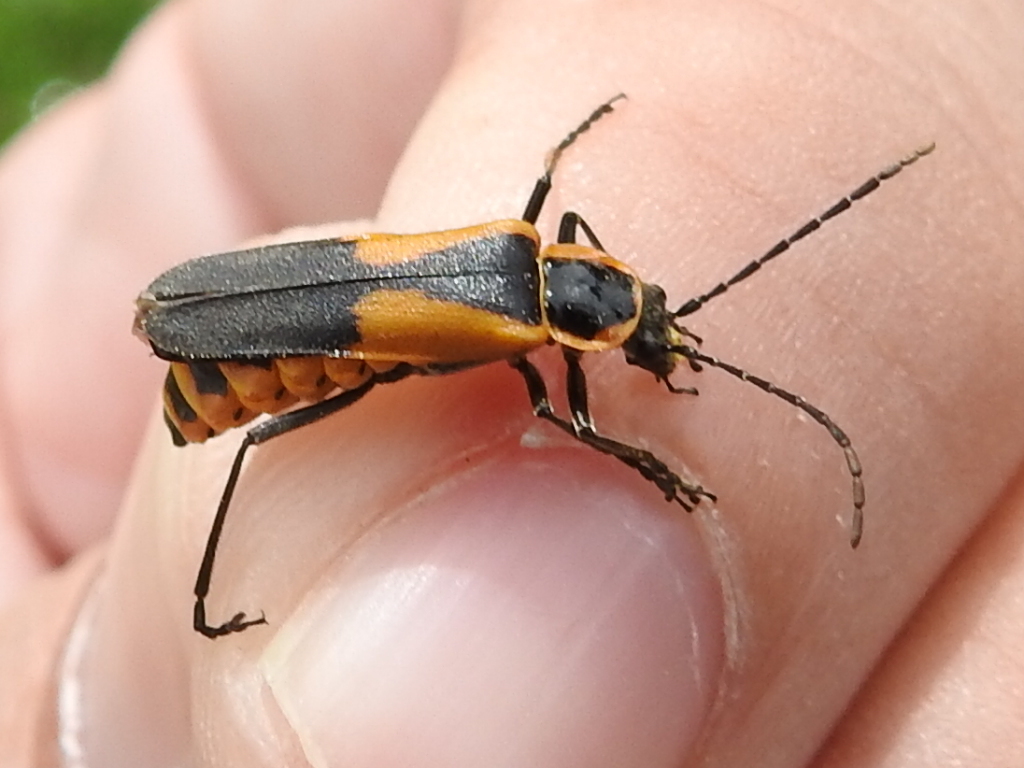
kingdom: Animalia
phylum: Arthropoda
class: Insecta
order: Coleoptera
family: Cantharidae
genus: Chauliognathus
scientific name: Chauliognathus deceptus
